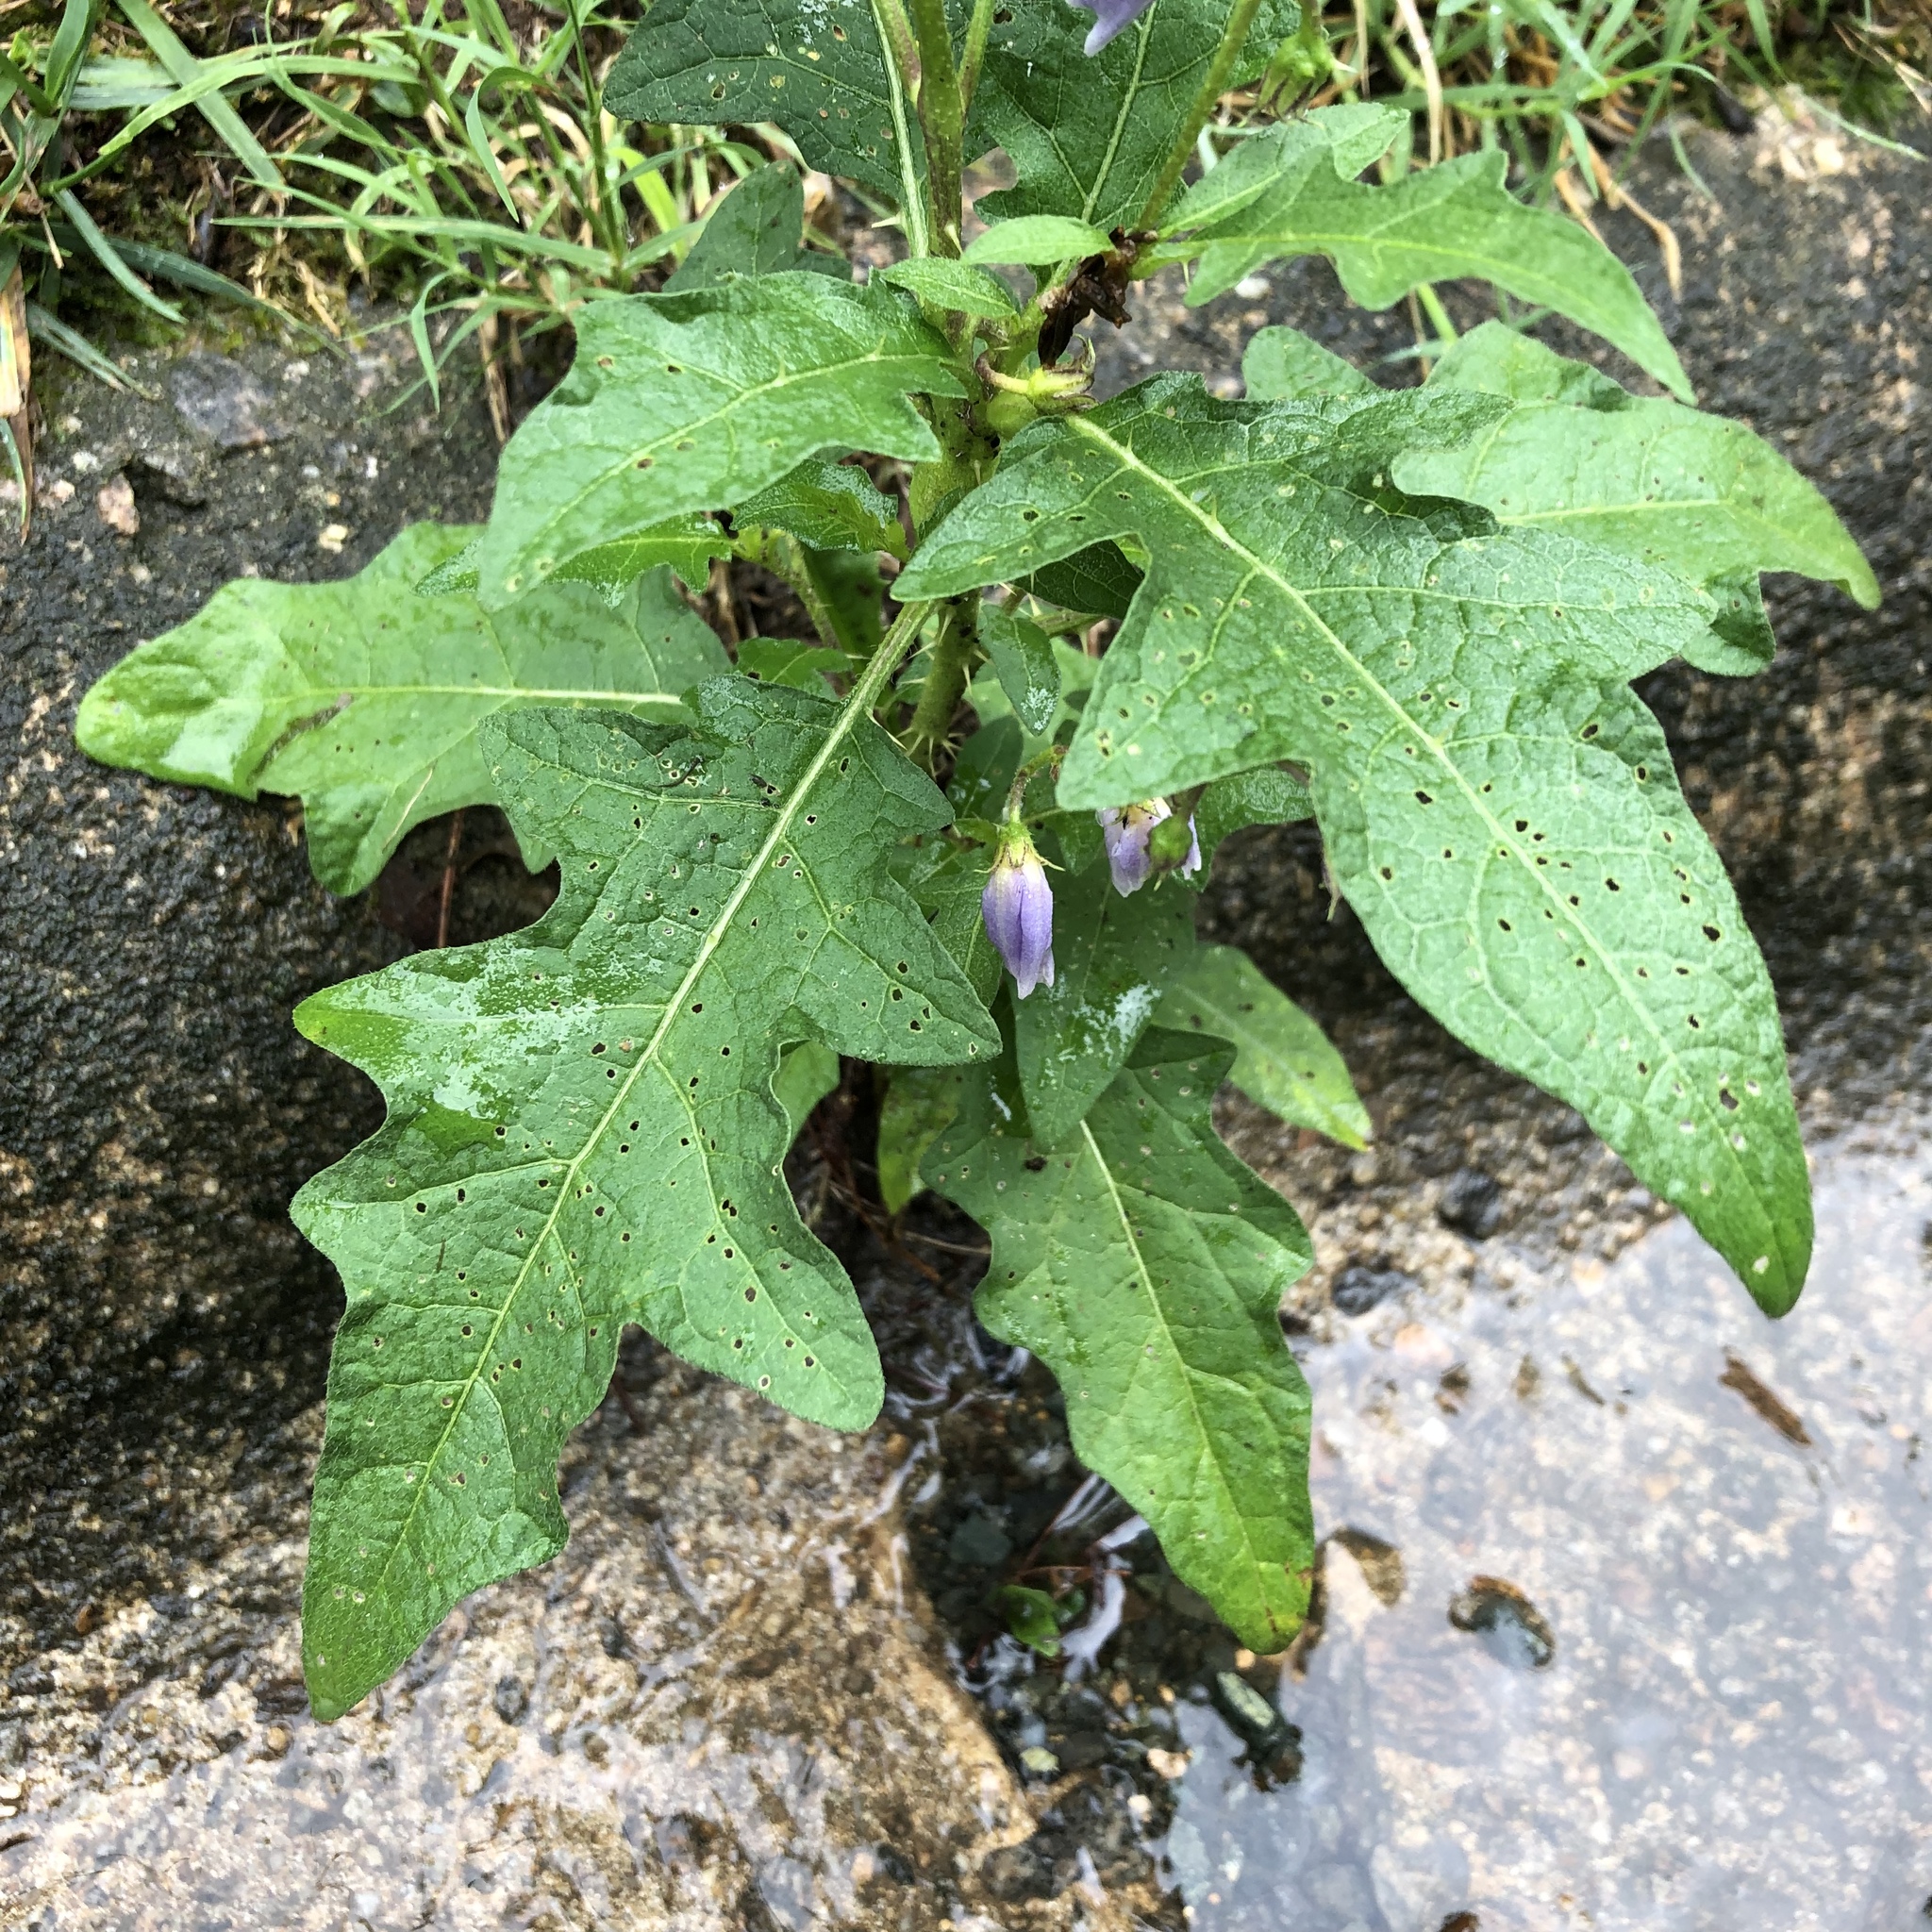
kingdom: Plantae
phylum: Tracheophyta
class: Magnoliopsida
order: Solanales
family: Solanaceae
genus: Solanum
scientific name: Solanum carolinense
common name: Horse-nettle
